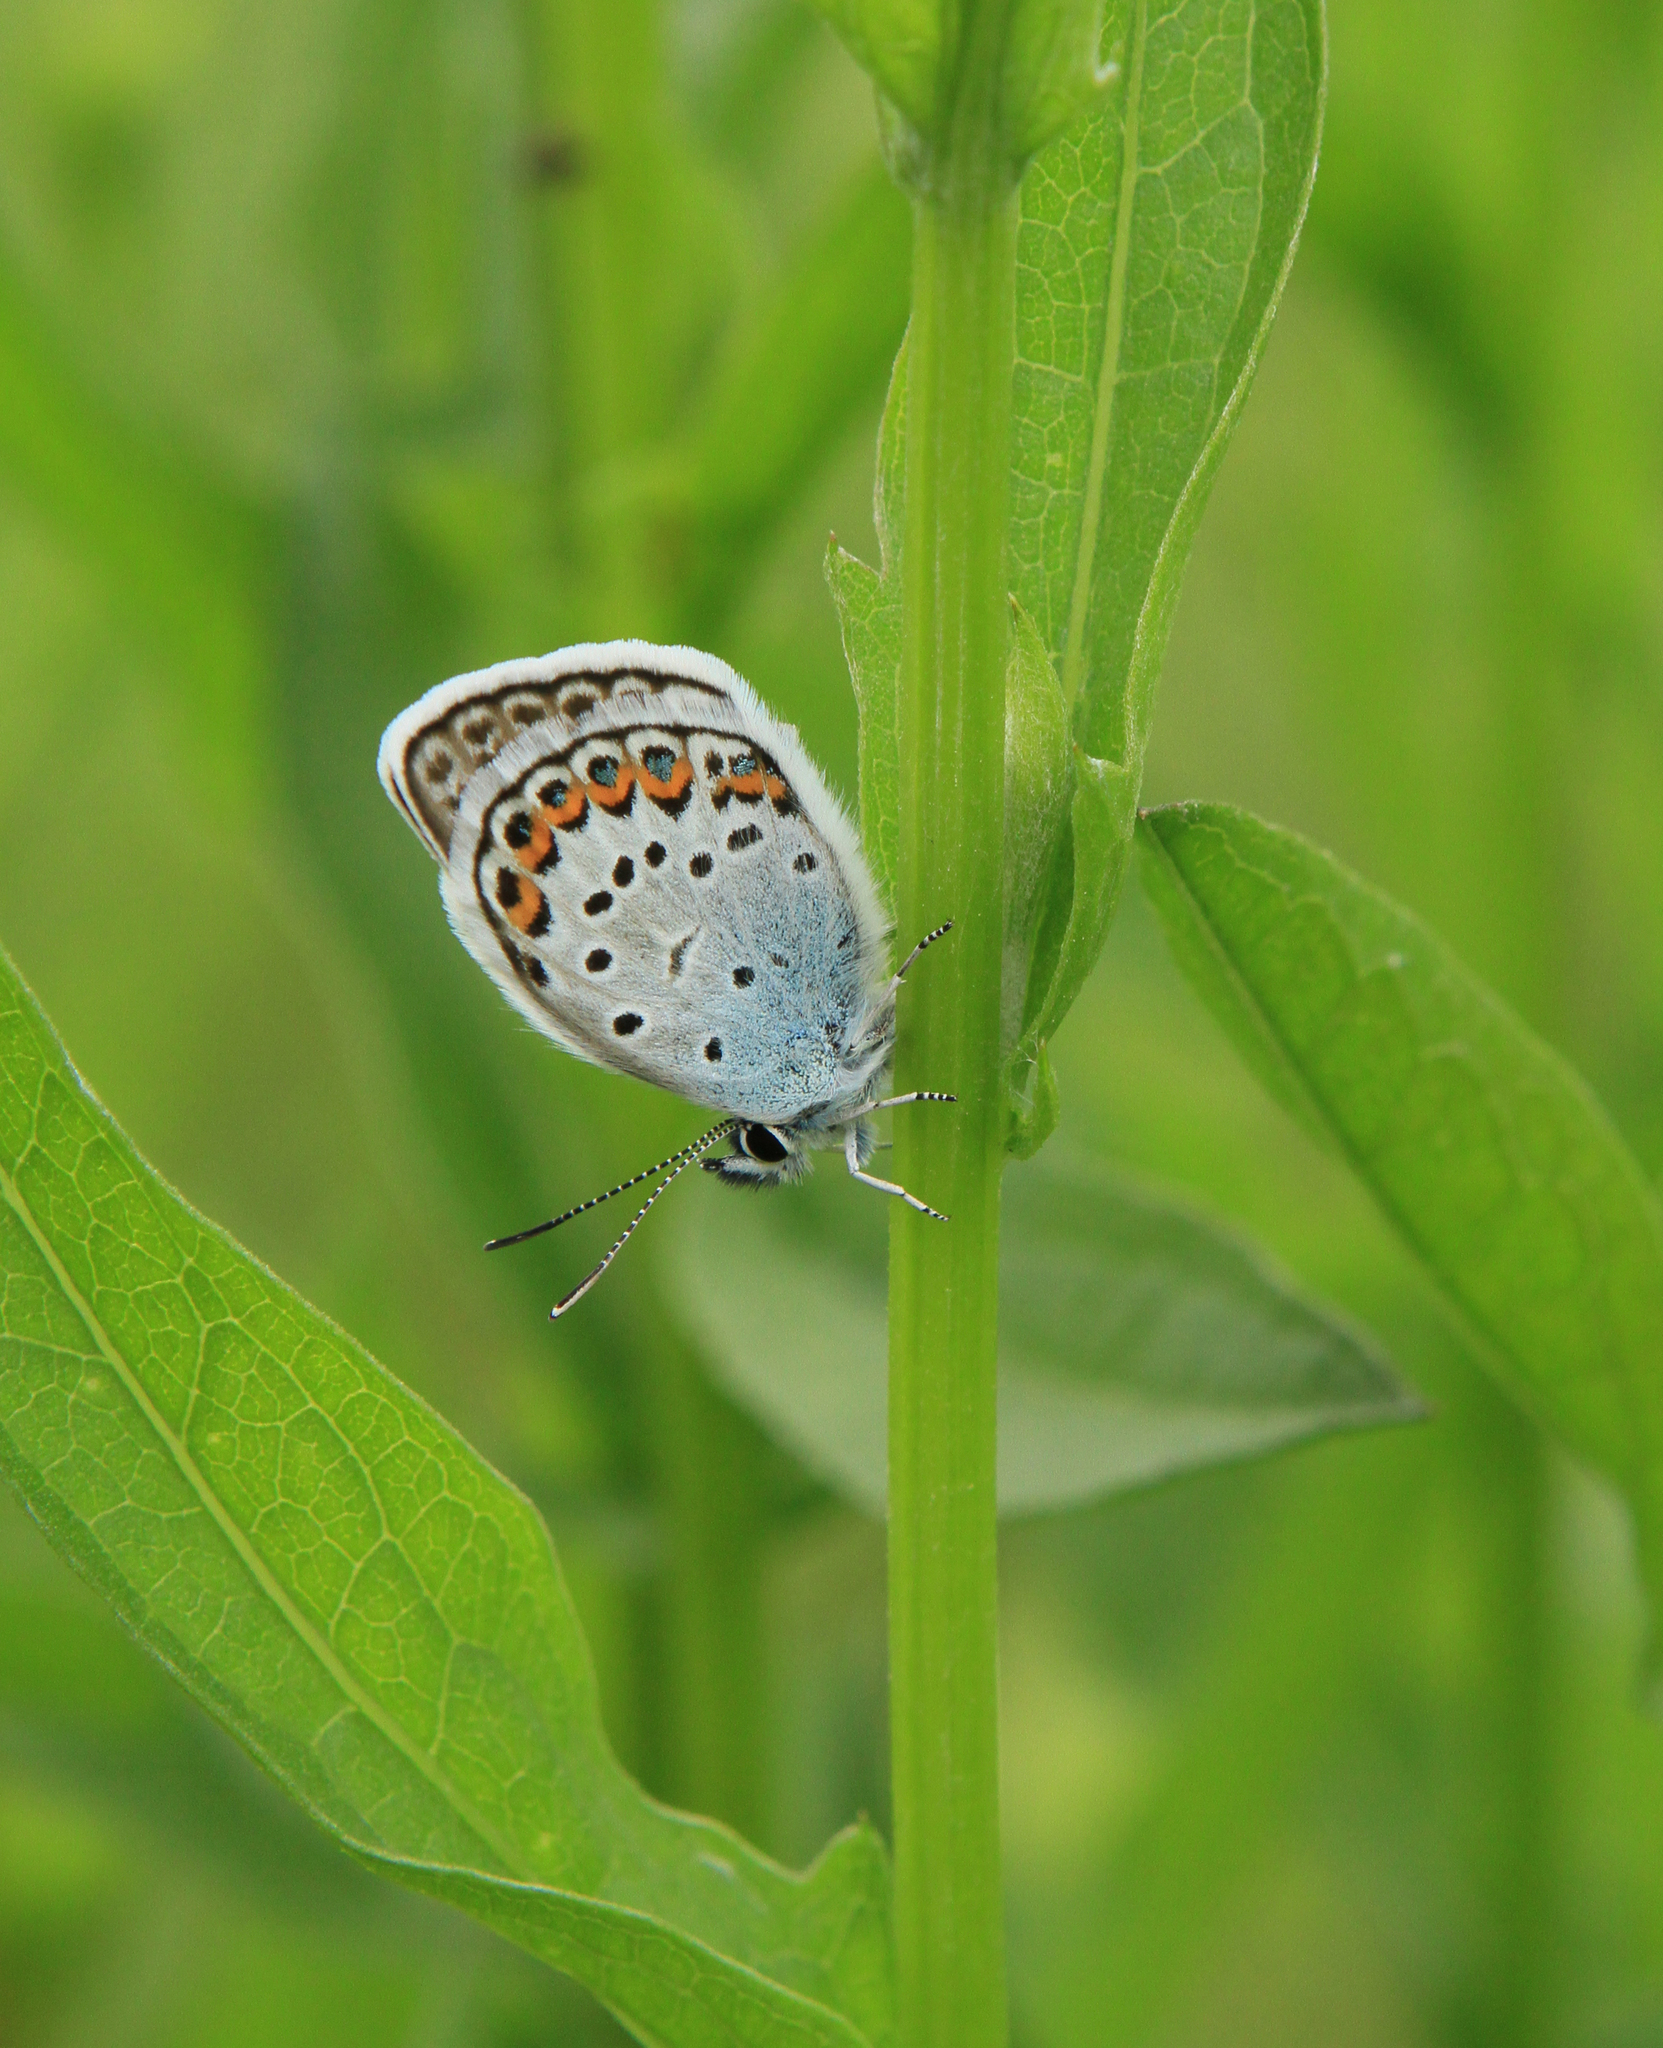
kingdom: Animalia
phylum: Arthropoda
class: Insecta
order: Lepidoptera
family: Lycaenidae
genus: Plebejus
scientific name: Plebejus argus
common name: Silver-studded blue
